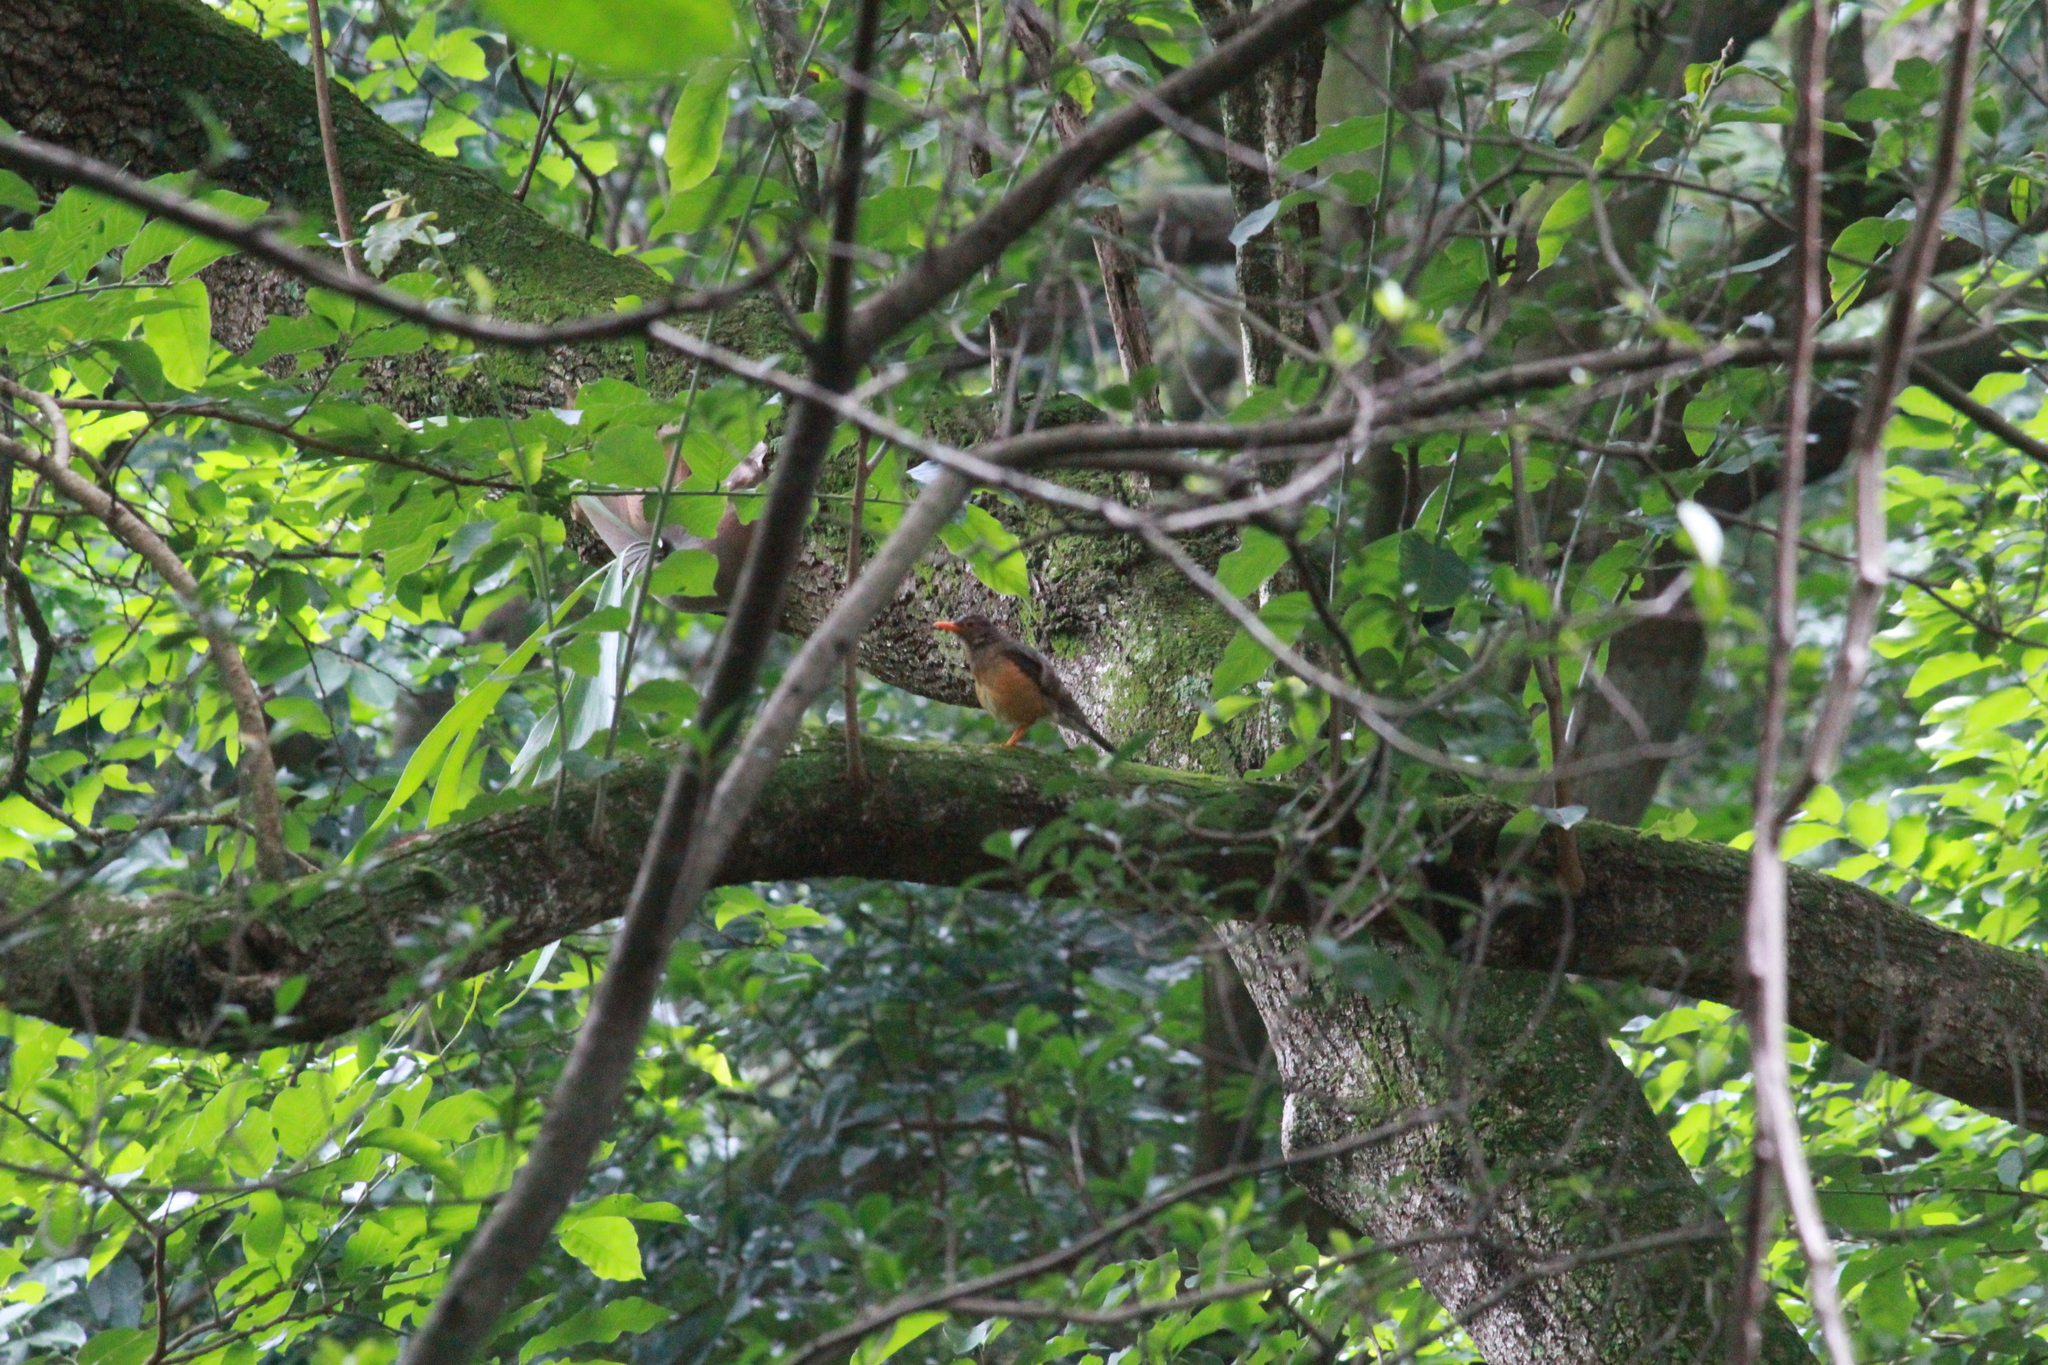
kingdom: Animalia
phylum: Chordata
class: Aves
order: Passeriformes
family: Turdidae
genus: Turdus
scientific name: Turdus libonyana
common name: Kurrichane thrush
